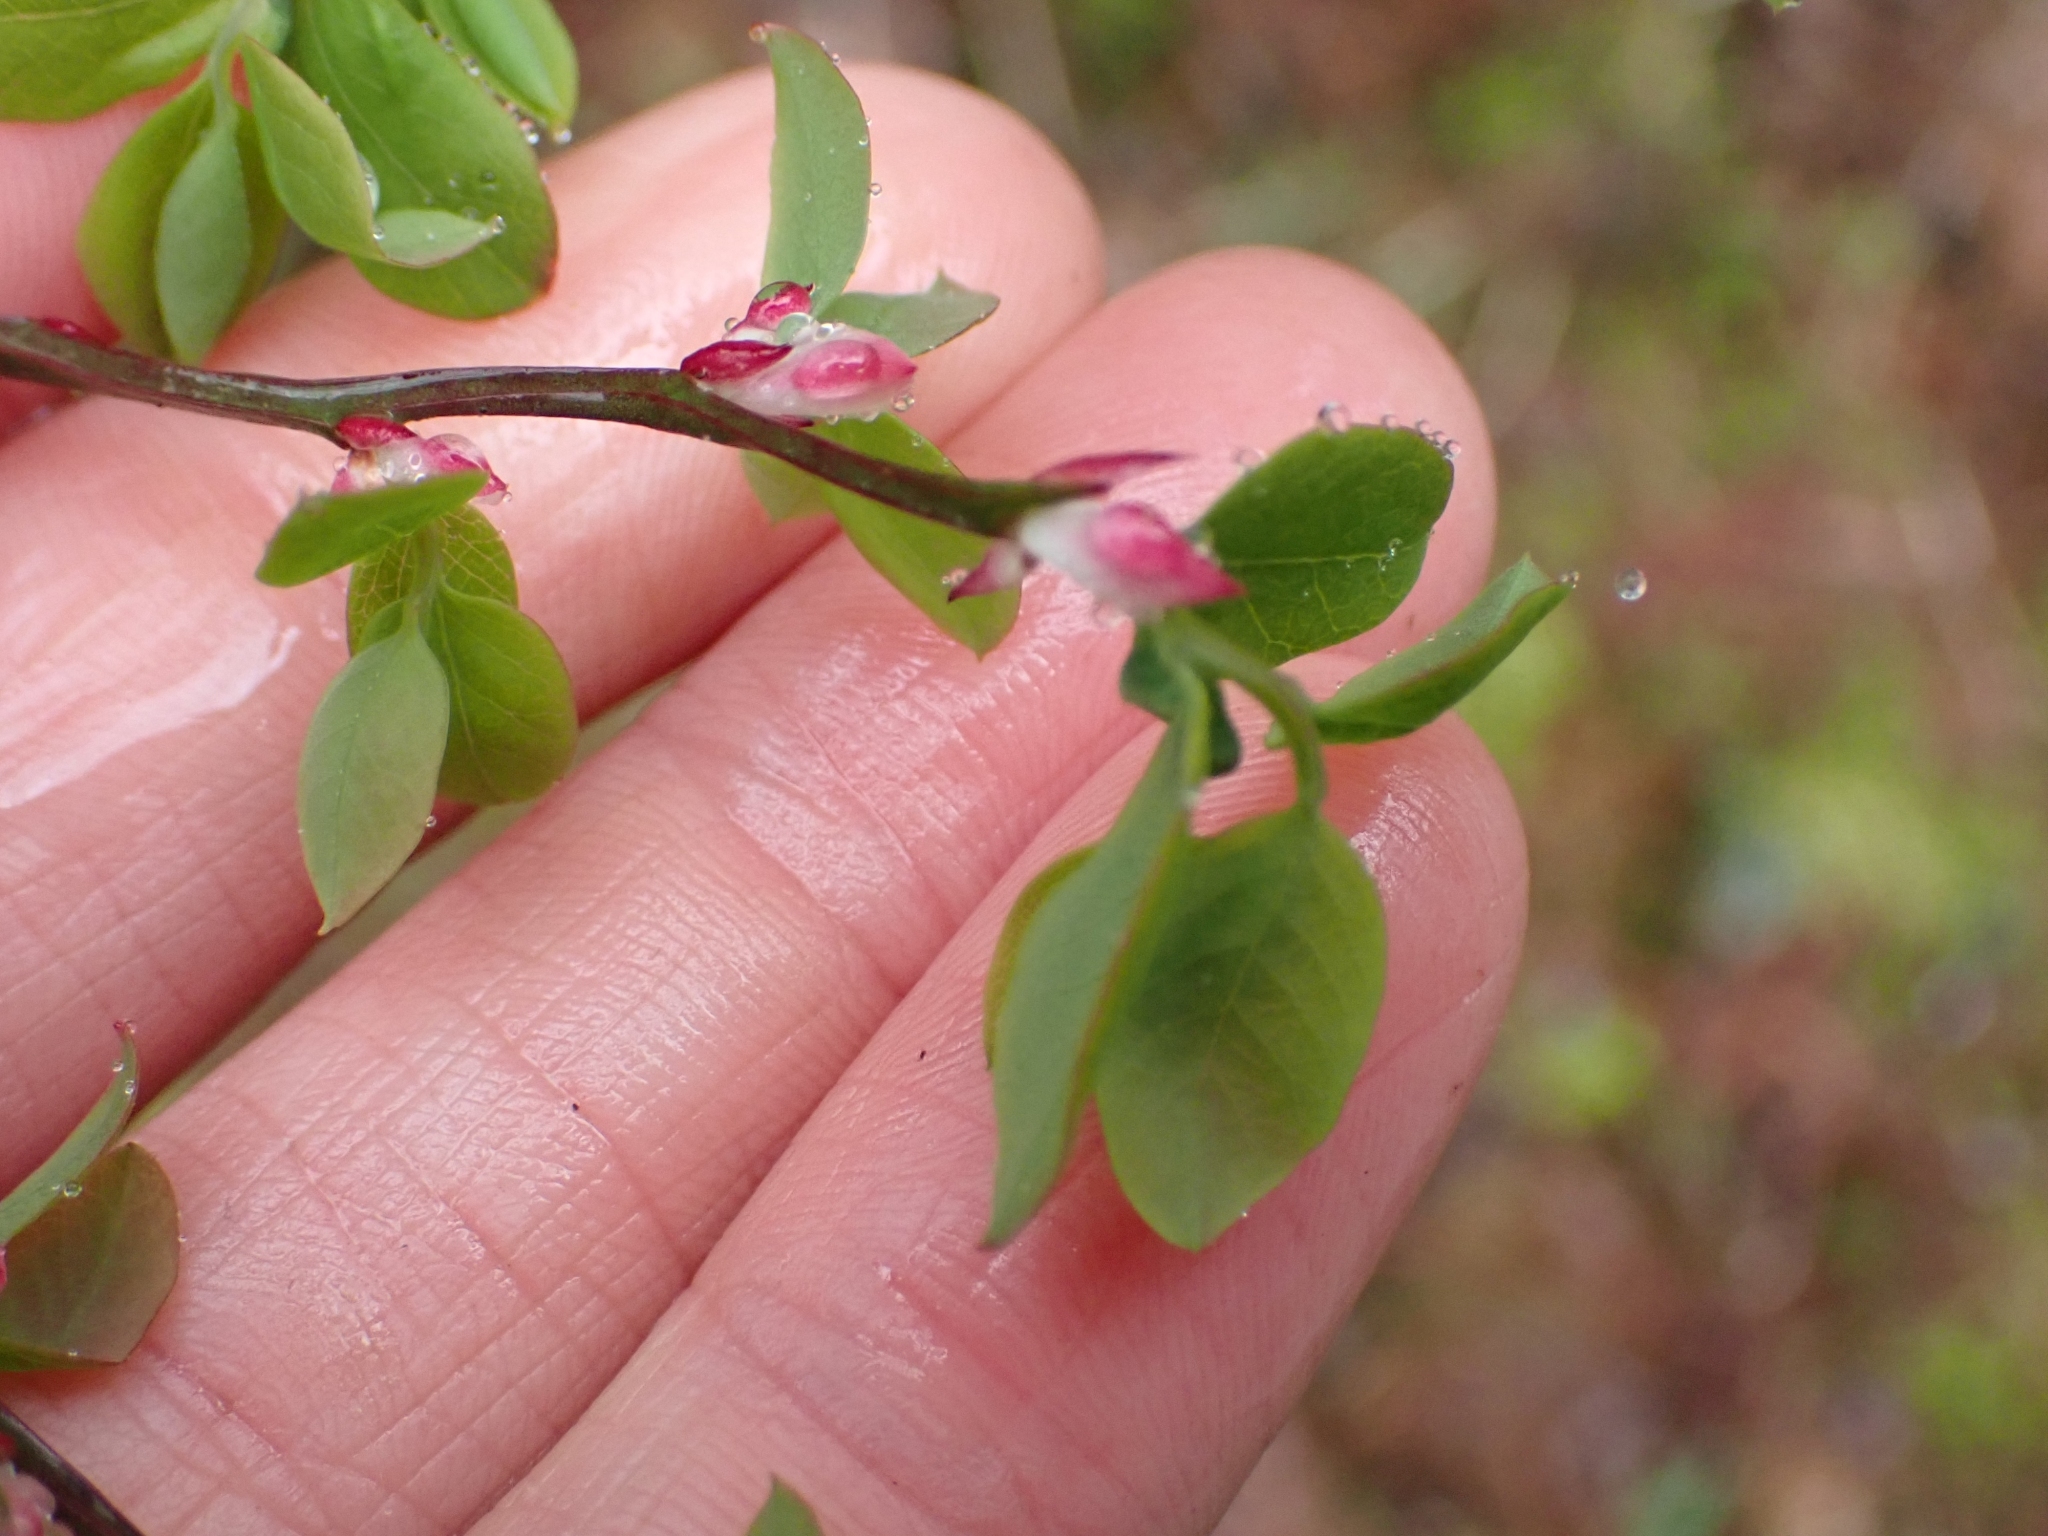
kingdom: Plantae
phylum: Tracheophyta
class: Magnoliopsida
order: Ericales
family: Ericaceae
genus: Vaccinium
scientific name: Vaccinium parvifolium
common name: Red-huckleberry
